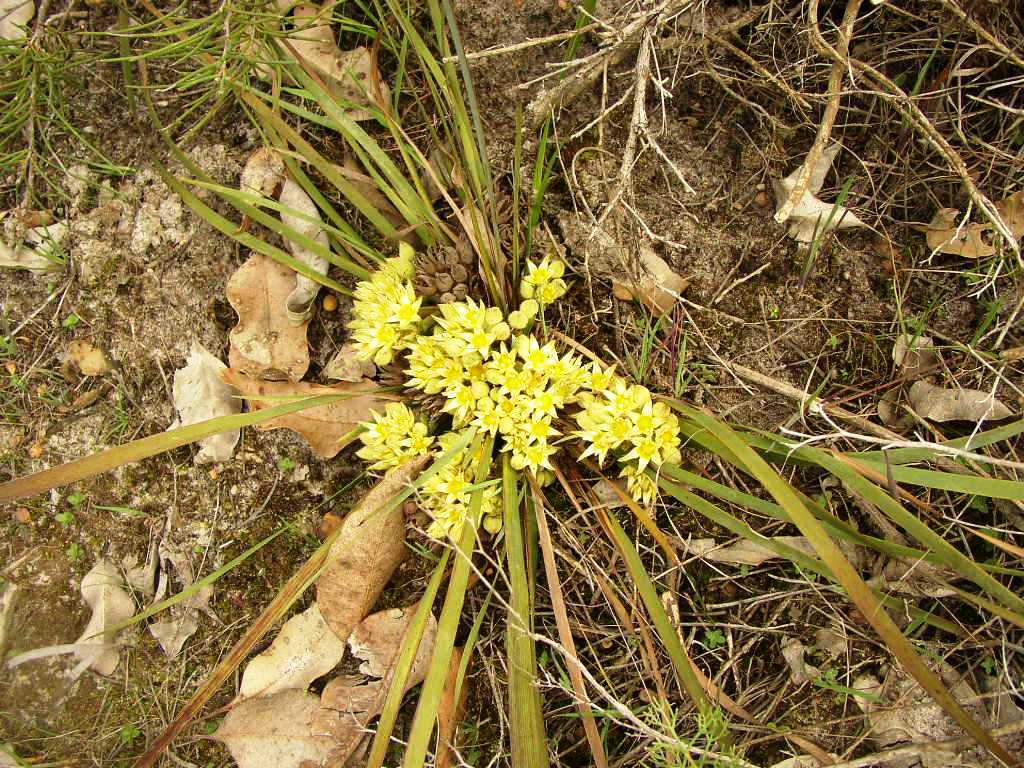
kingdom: Plantae
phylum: Tracheophyta
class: Liliopsida
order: Commelinales
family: Haemodoraceae
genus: Conostylis
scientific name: Conostylis aculeata
